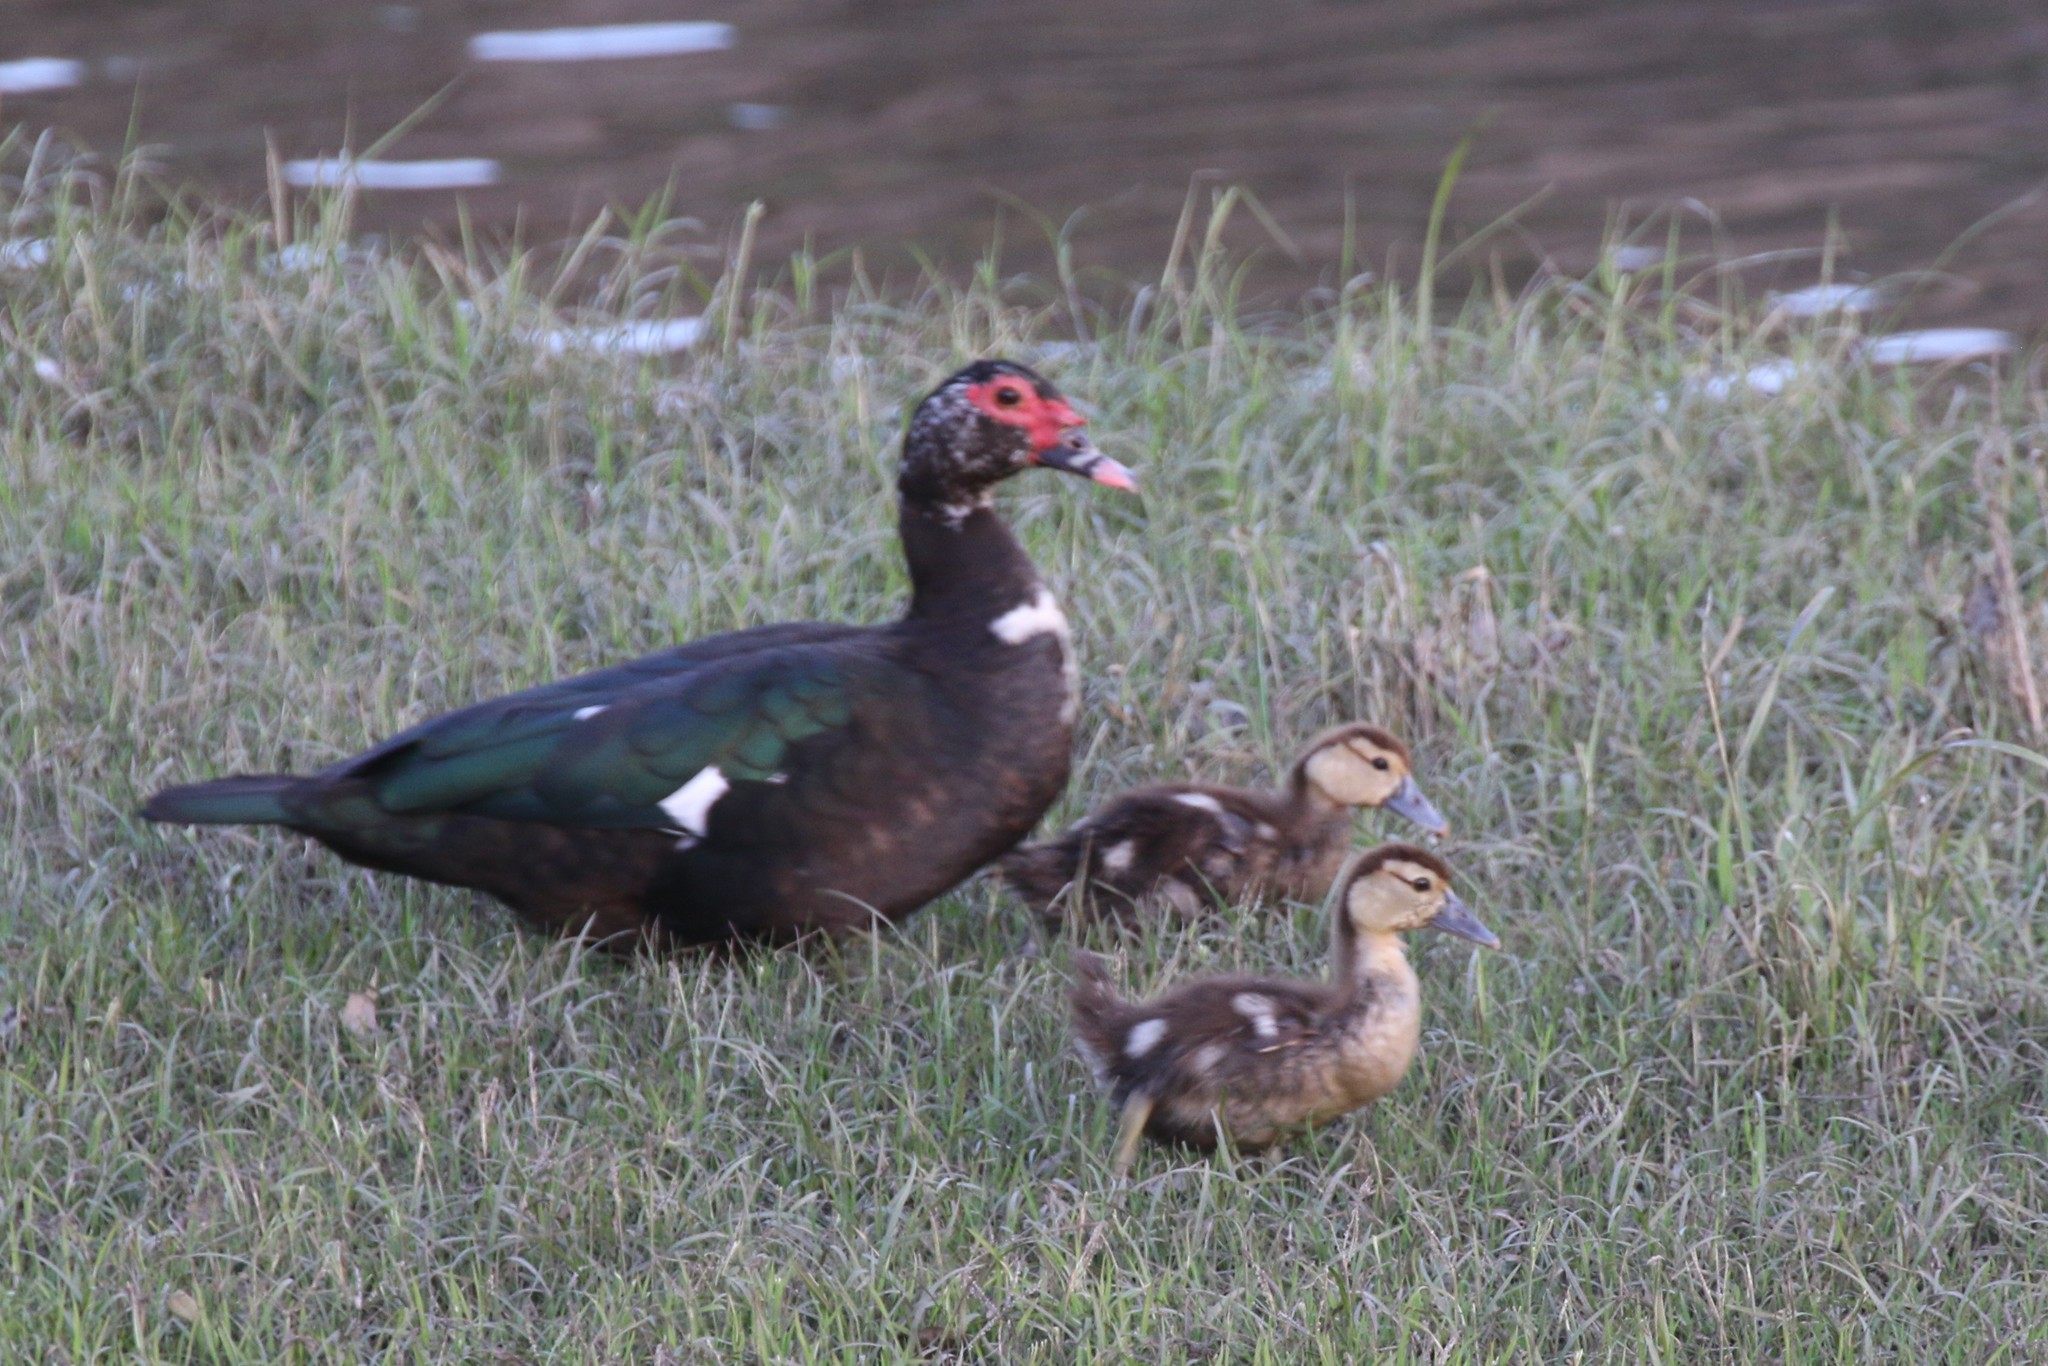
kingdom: Animalia
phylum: Chordata
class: Aves
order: Anseriformes
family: Anatidae
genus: Cairina
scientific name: Cairina moschata
